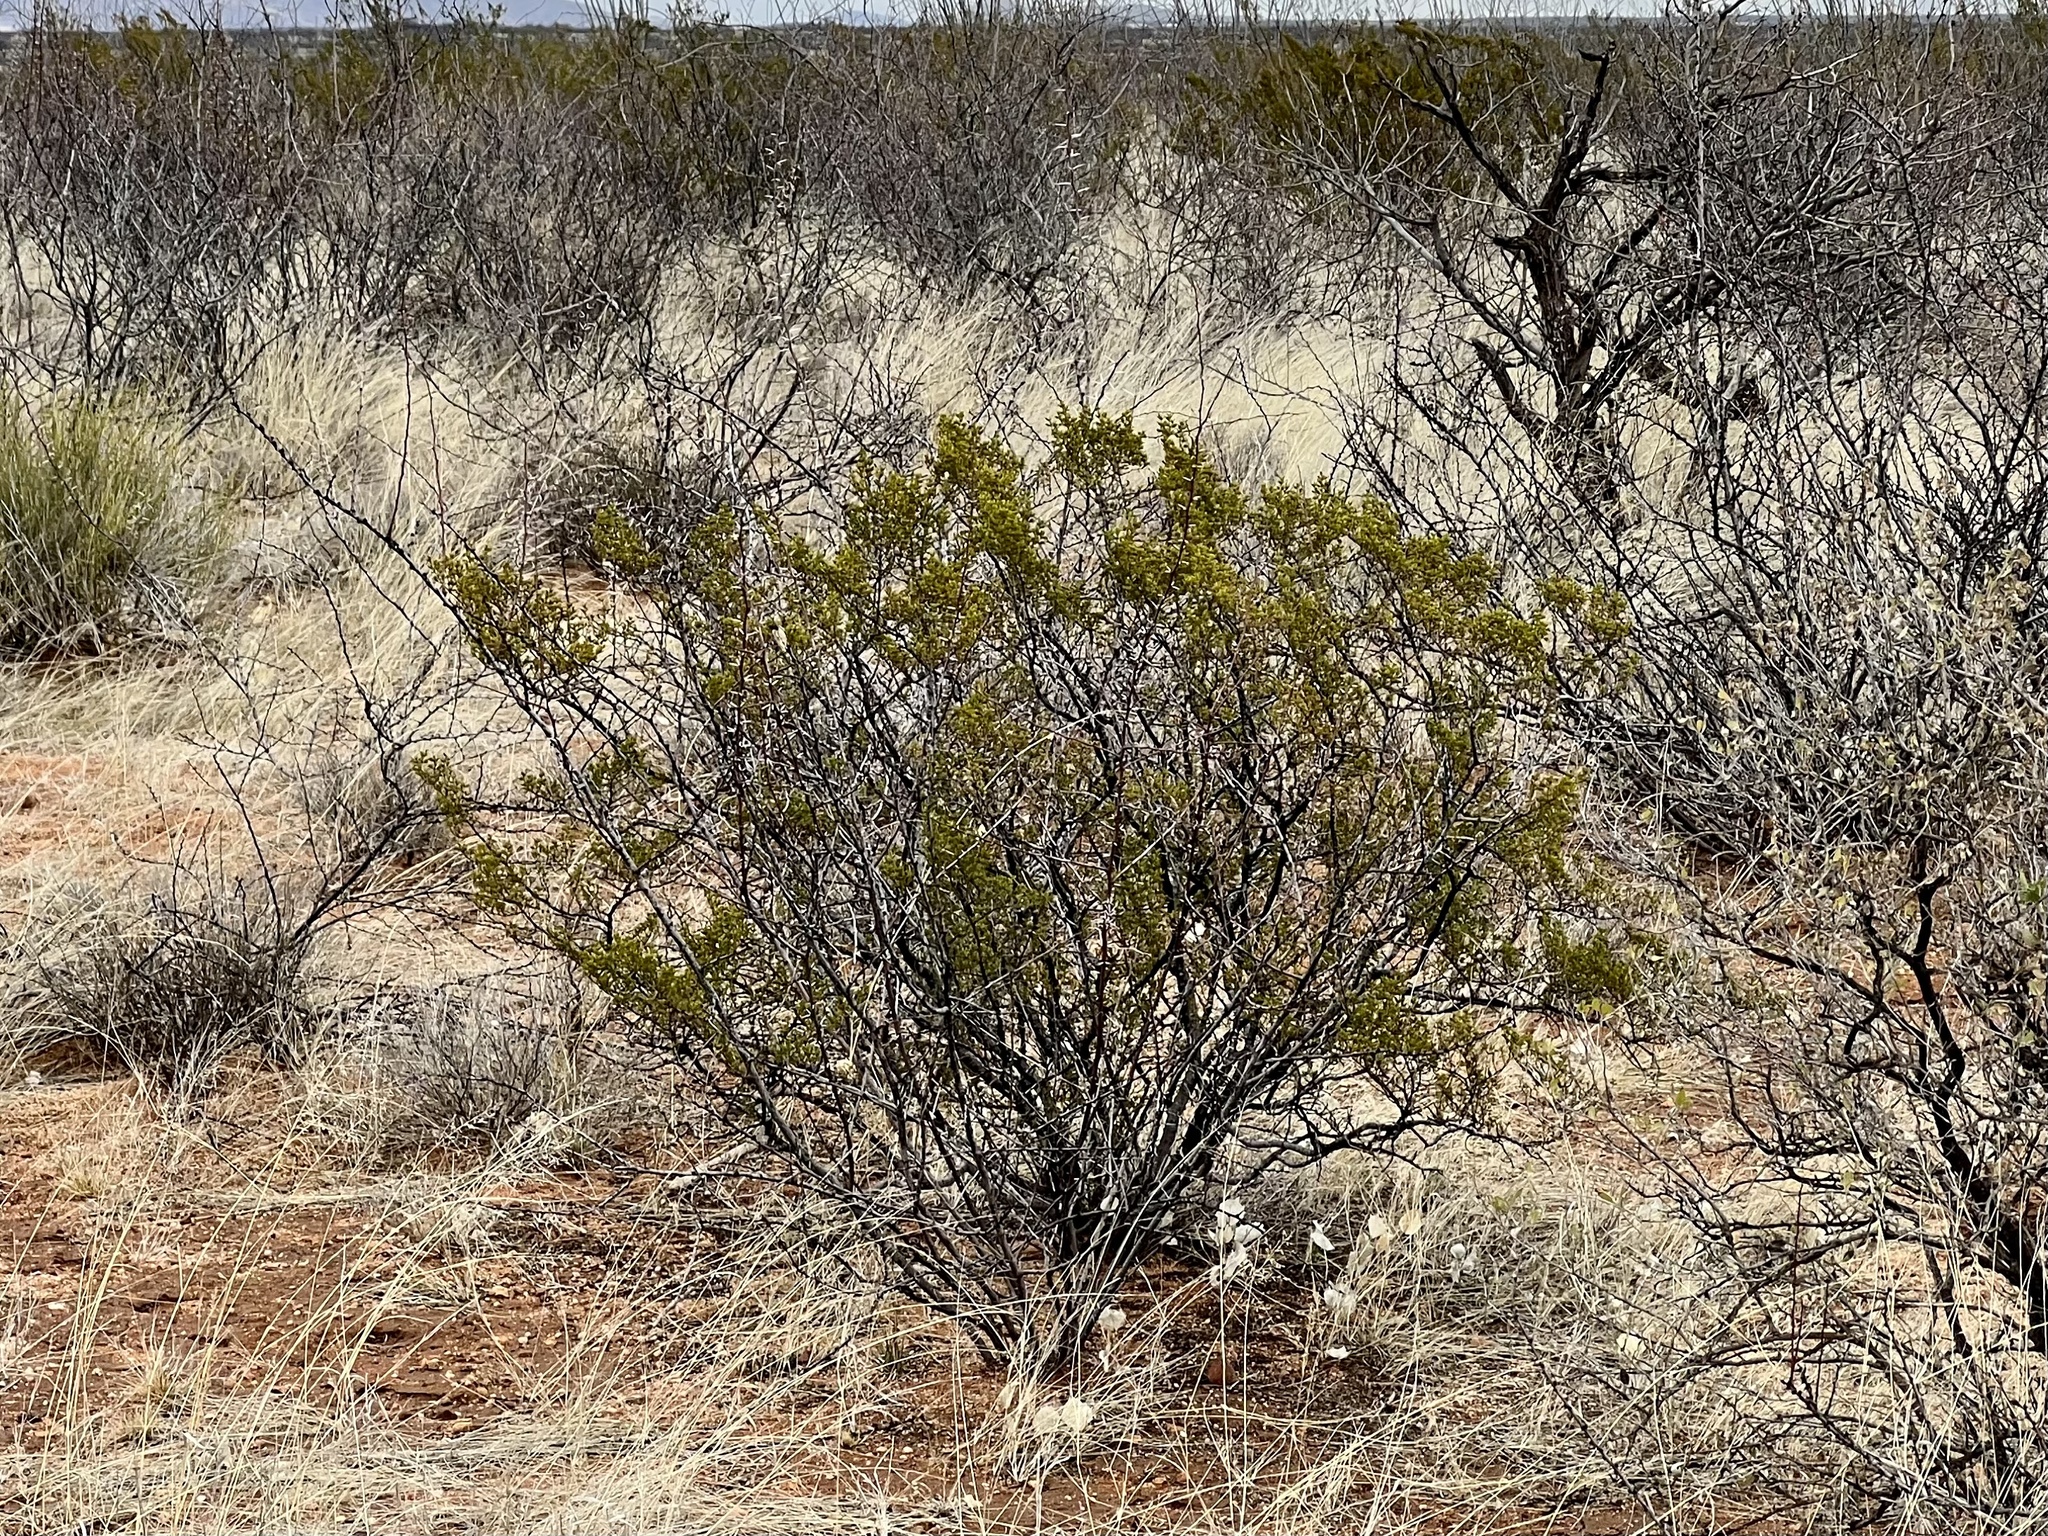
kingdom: Plantae
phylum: Tracheophyta
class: Magnoliopsida
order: Zygophyllales
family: Zygophyllaceae
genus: Larrea
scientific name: Larrea tridentata
